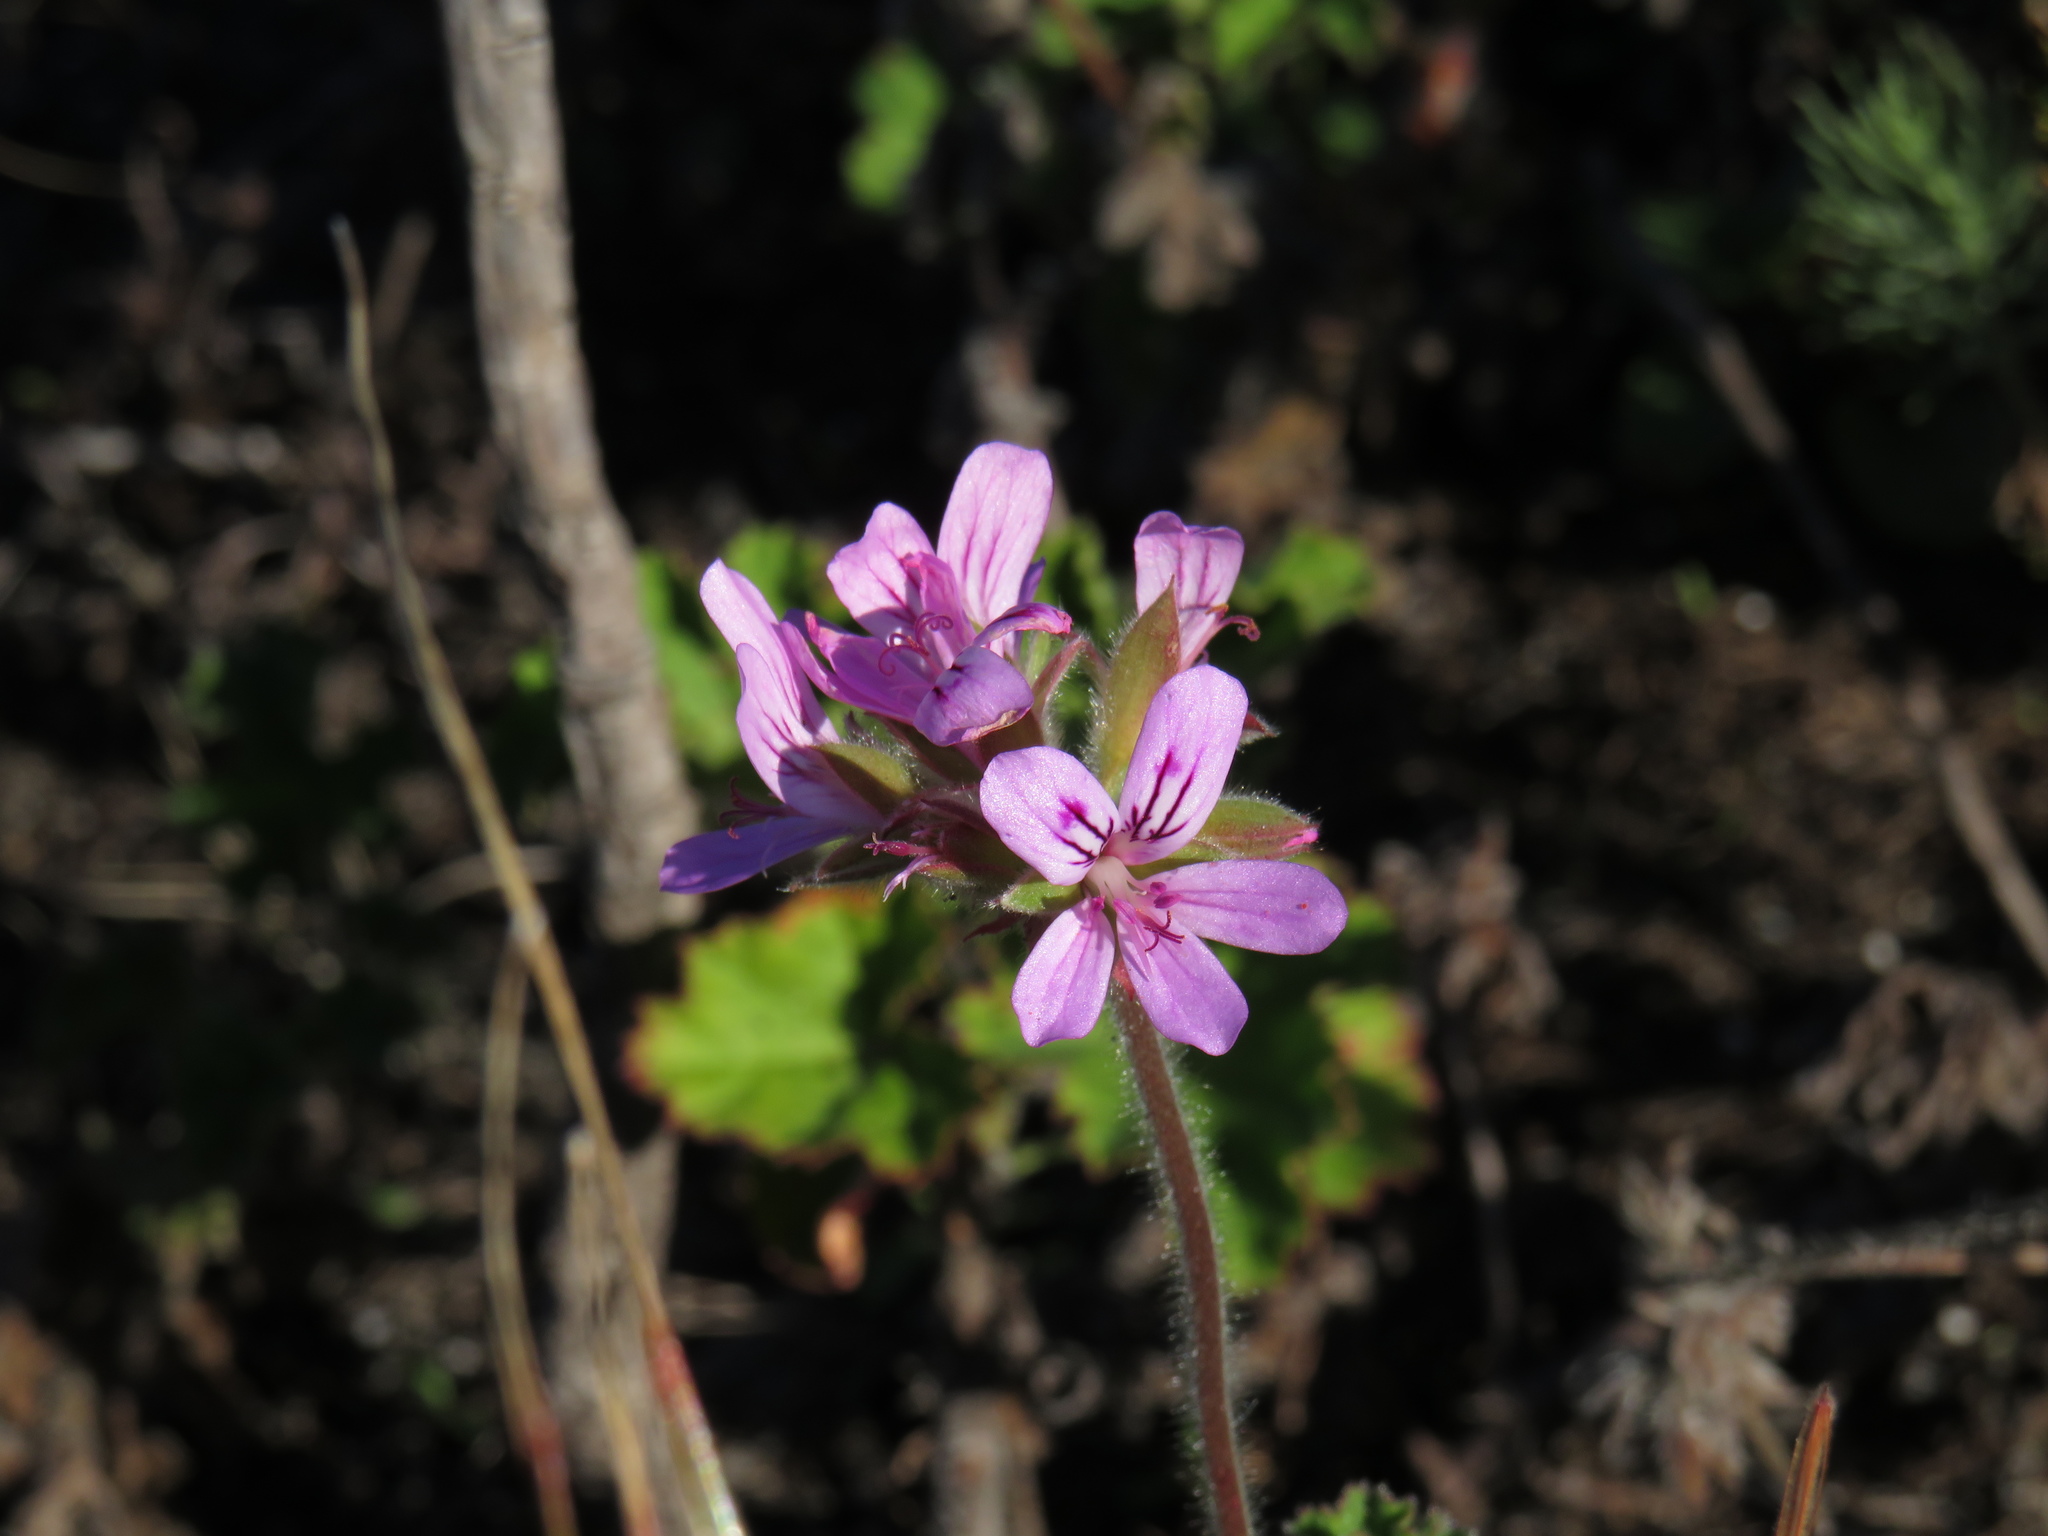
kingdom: Plantae
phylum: Tracheophyta
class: Magnoliopsida
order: Geraniales
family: Geraniaceae
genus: Pelargonium
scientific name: Pelargonium capitatum
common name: Rose scented geranium
